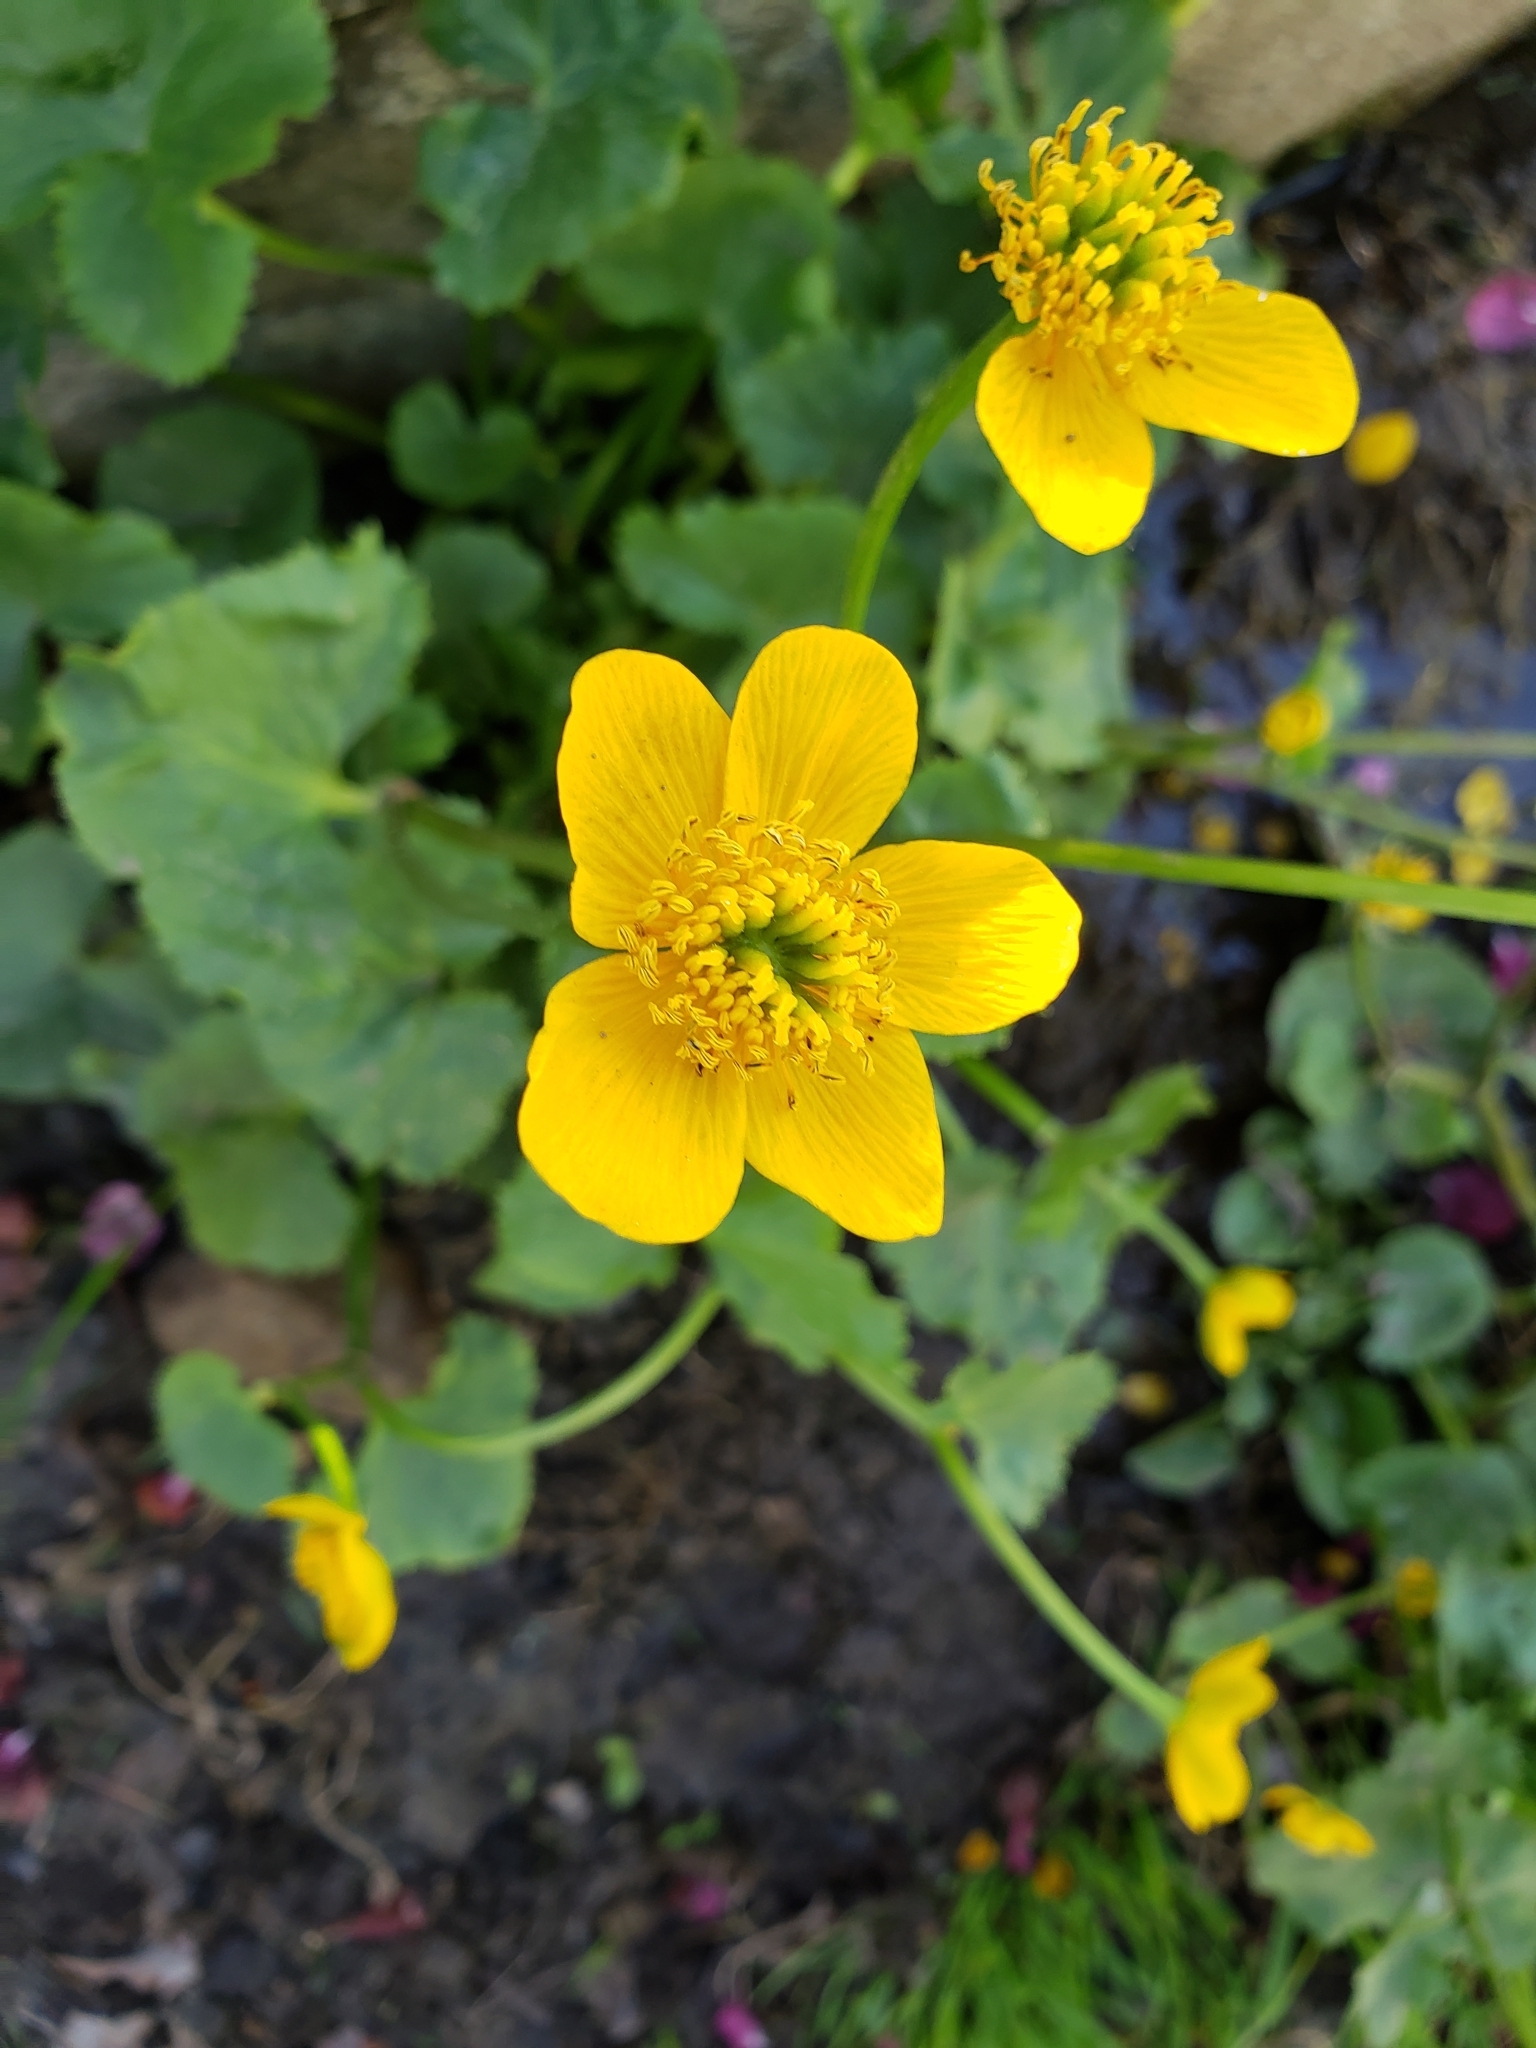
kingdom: Plantae
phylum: Tracheophyta
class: Magnoliopsida
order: Ranunculales
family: Ranunculaceae
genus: Caltha
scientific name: Caltha palustris
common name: Marsh marigold
